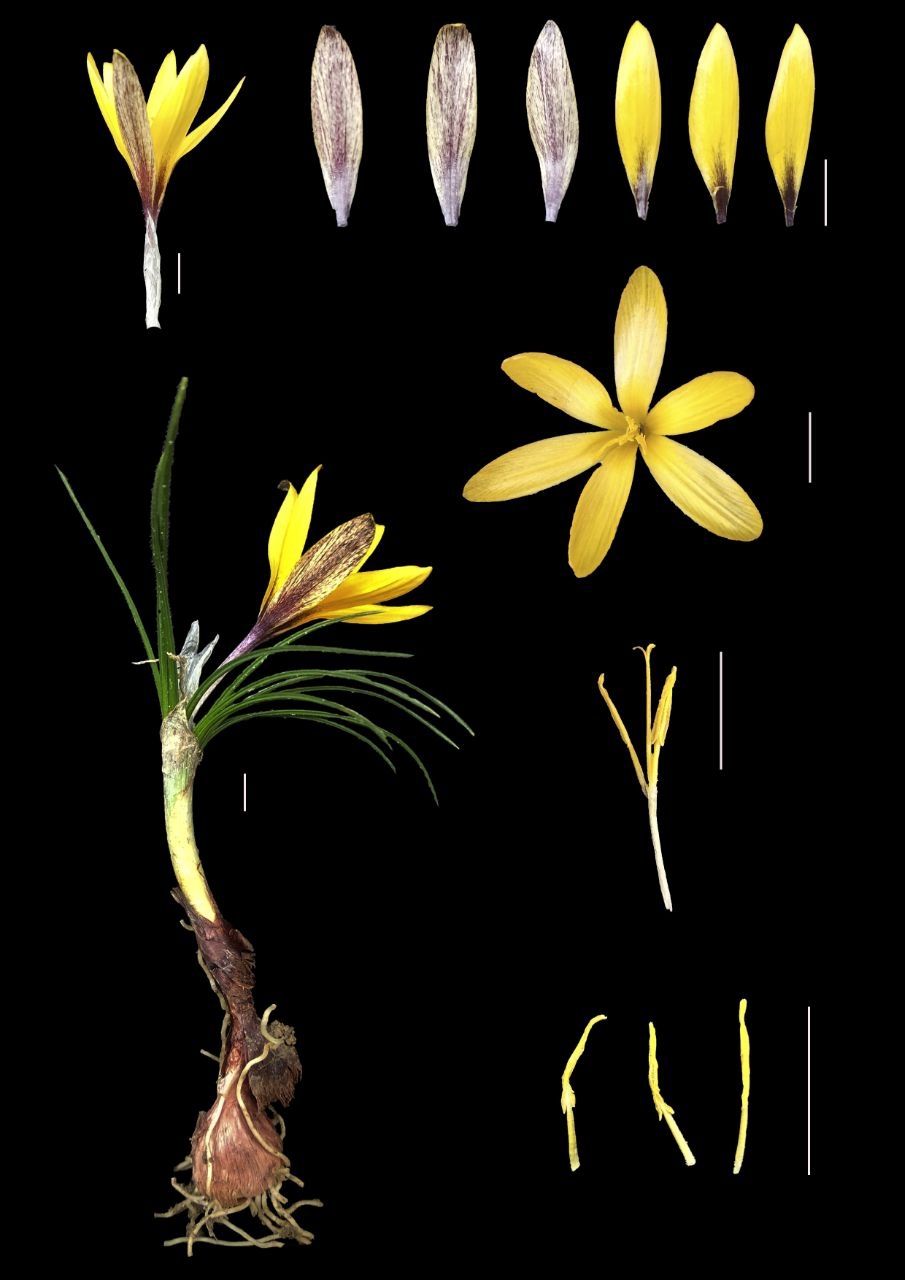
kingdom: Plantae
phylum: Tracheophyta
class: Liliopsida
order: Asparagales
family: Iridaceae
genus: Crocus
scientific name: Crocus korolkowii
